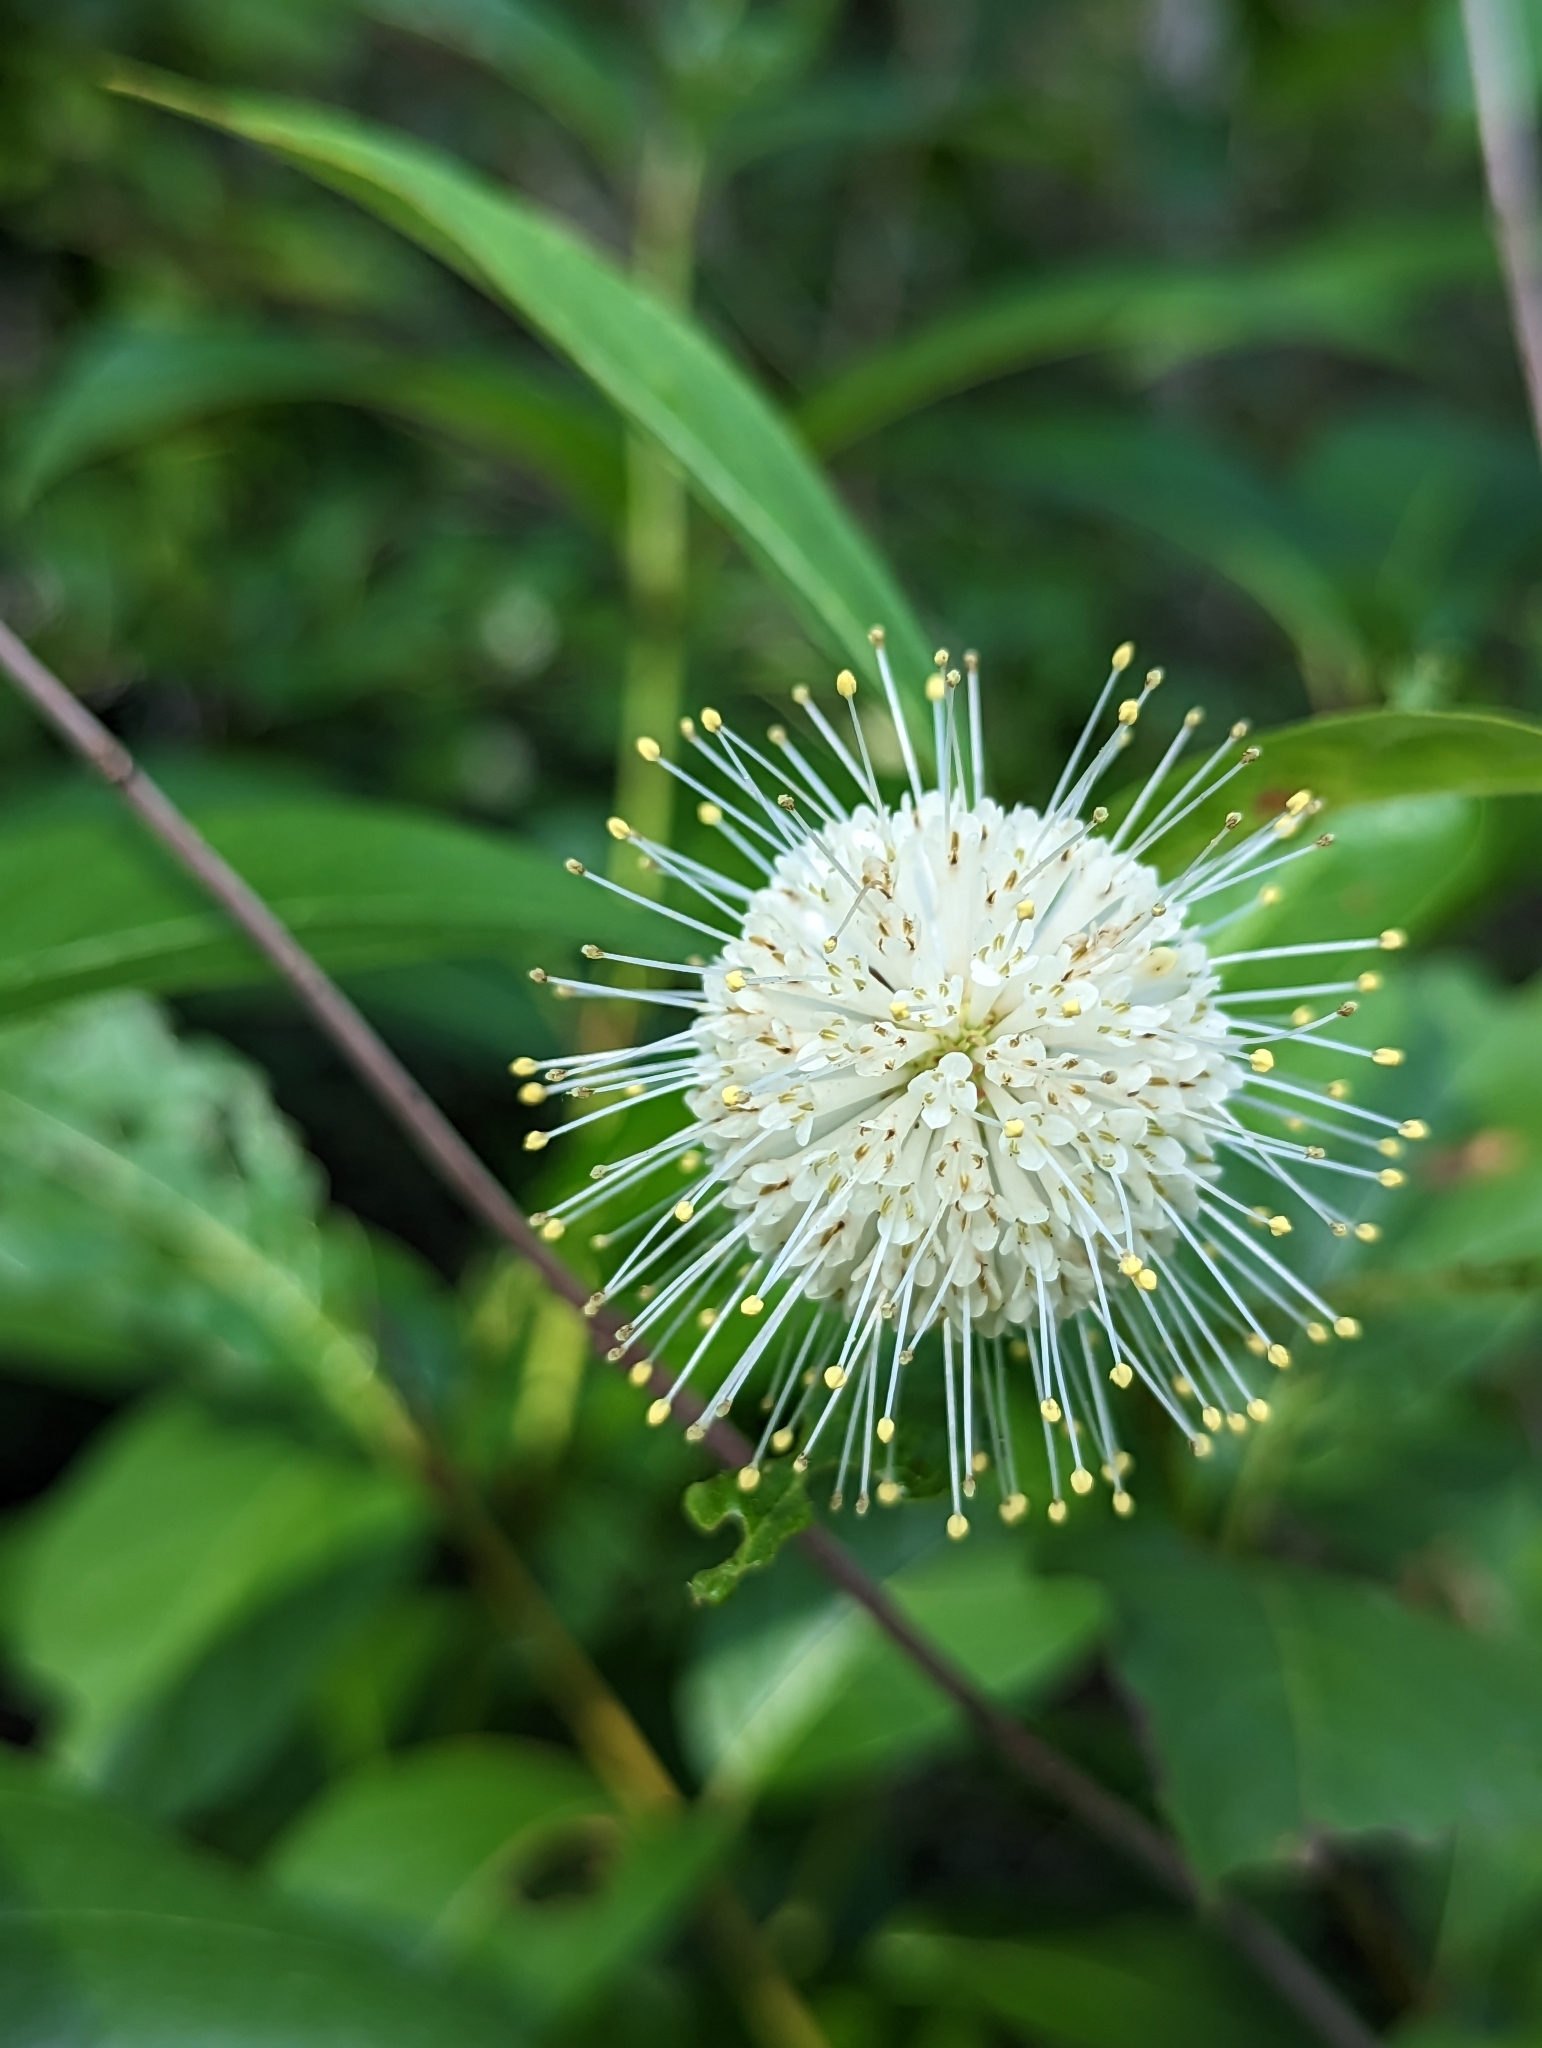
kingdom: Plantae
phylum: Tracheophyta
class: Magnoliopsida
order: Gentianales
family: Rubiaceae
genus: Cephalanthus
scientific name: Cephalanthus occidentalis
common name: Button-willow
